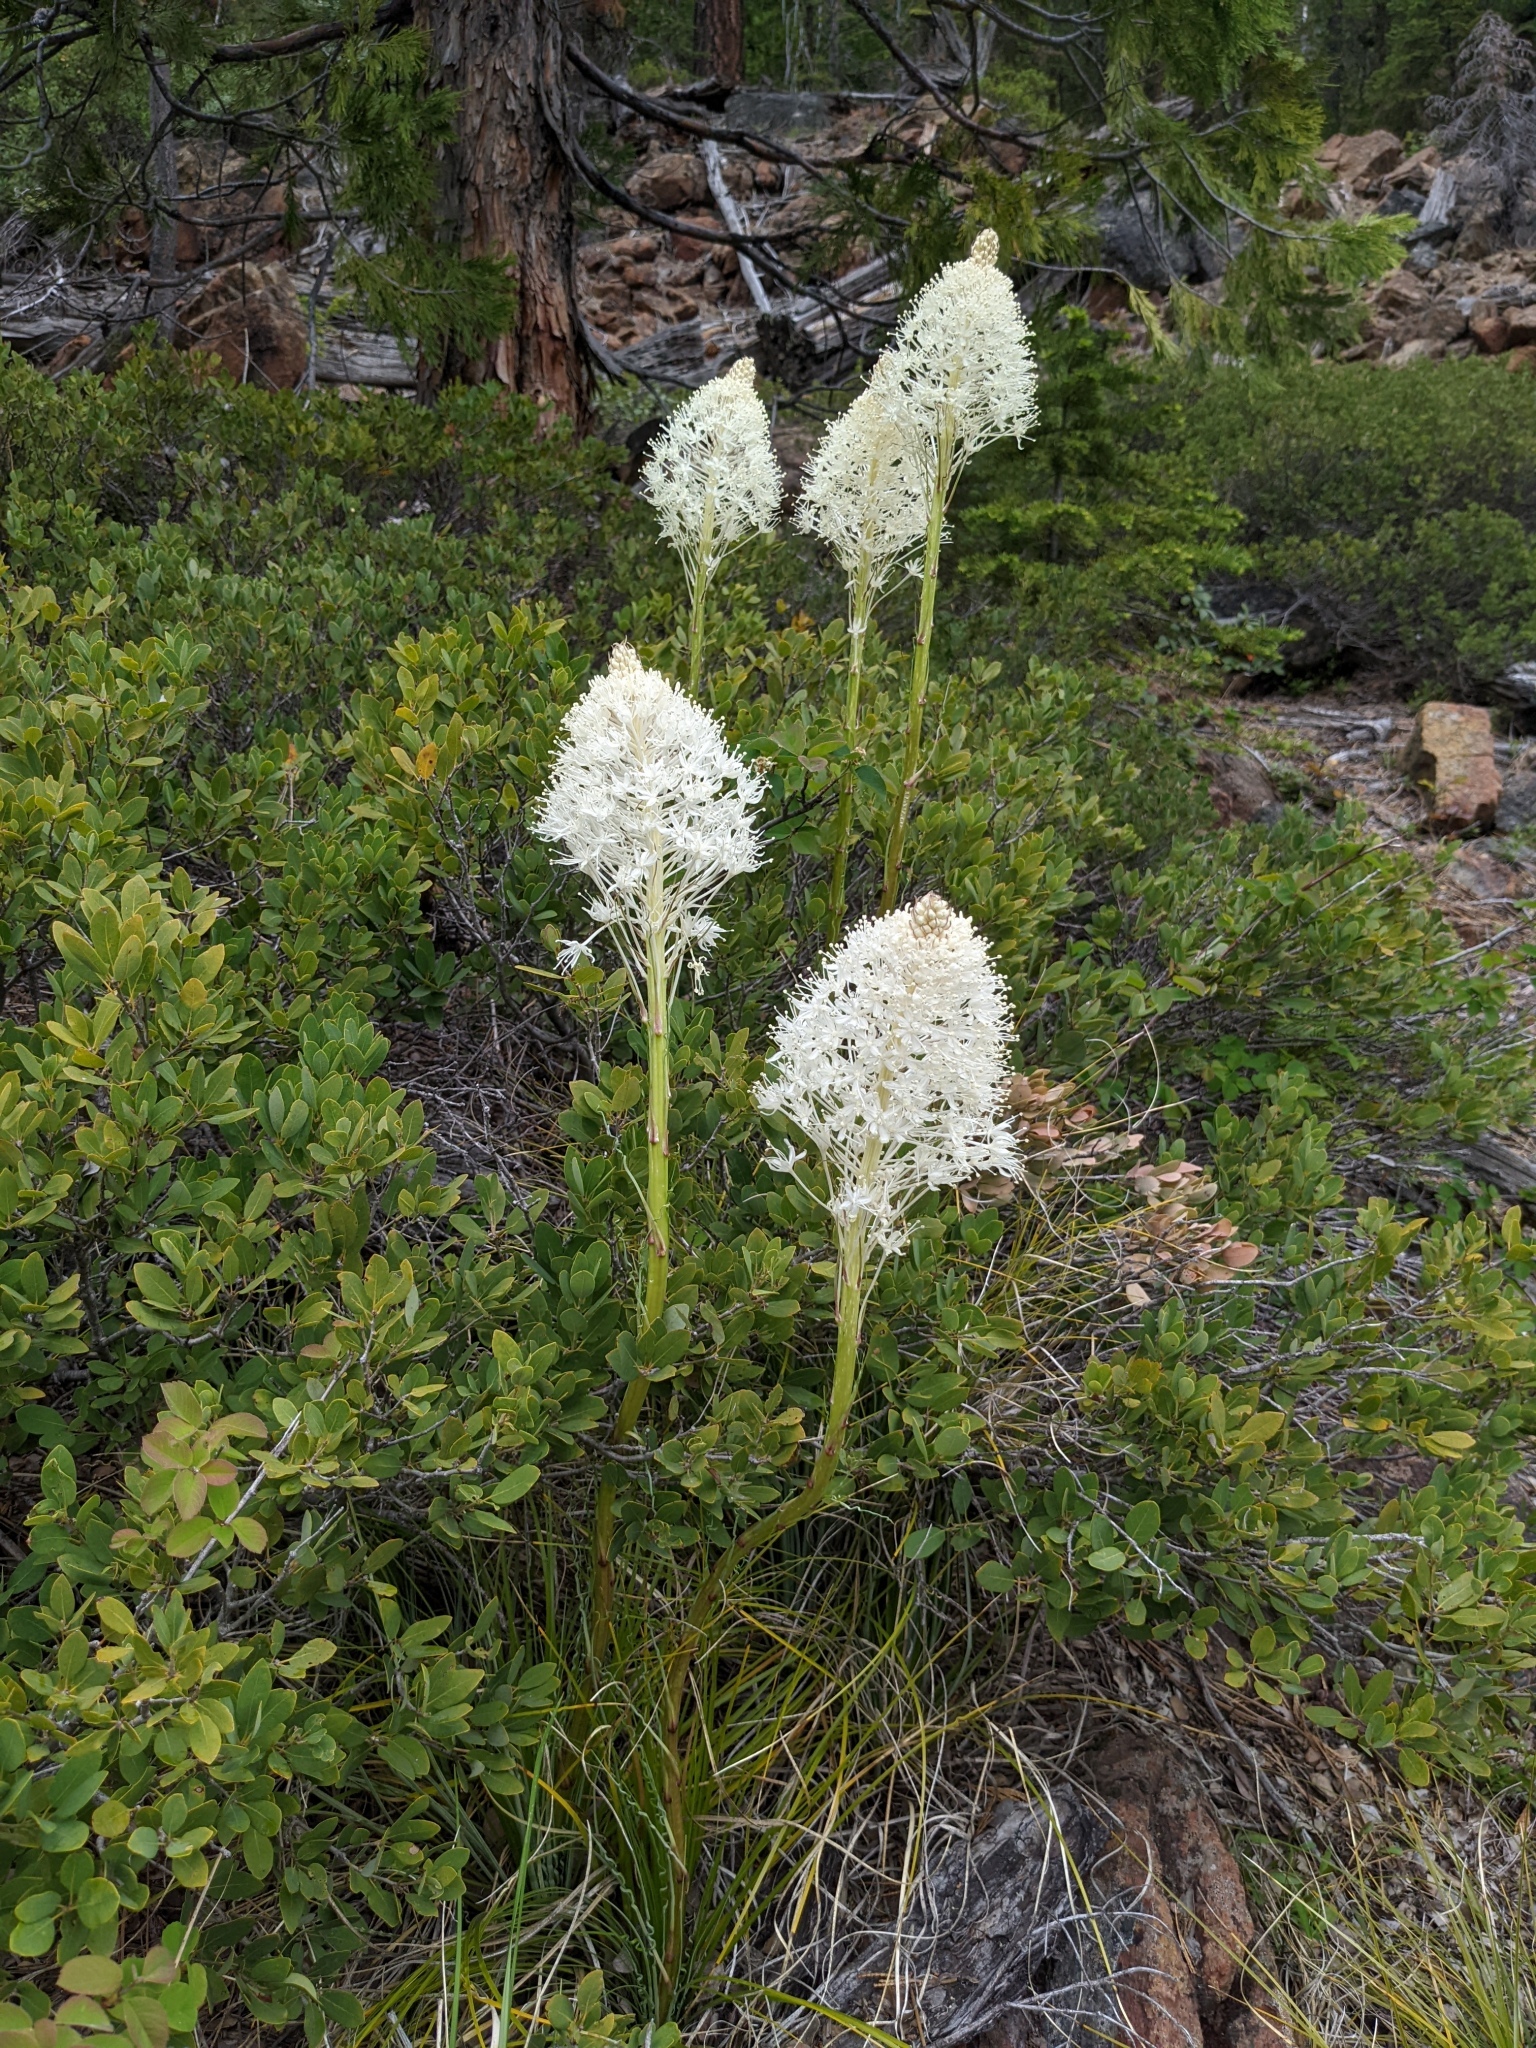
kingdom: Plantae
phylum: Tracheophyta
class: Liliopsida
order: Liliales
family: Melanthiaceae
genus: Xerophyllum
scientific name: Xerophyllum tenax
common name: Bear-grass
